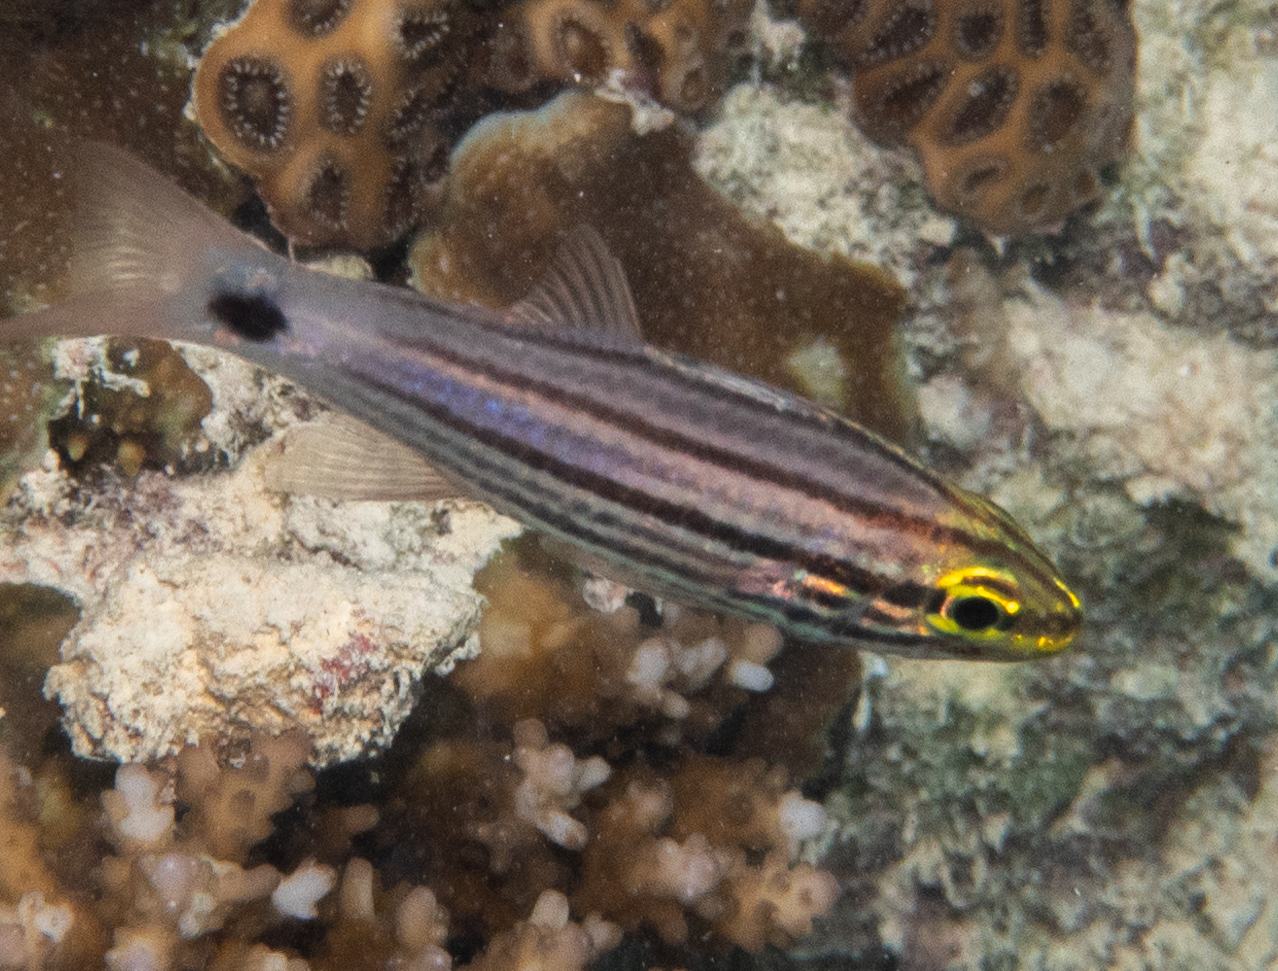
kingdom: Animalia
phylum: Chordata
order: Perciformes
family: Apogonidae
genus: Cheilodipterus
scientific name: Cheilodipterus macrodon
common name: Eight-lined cardinalfish
